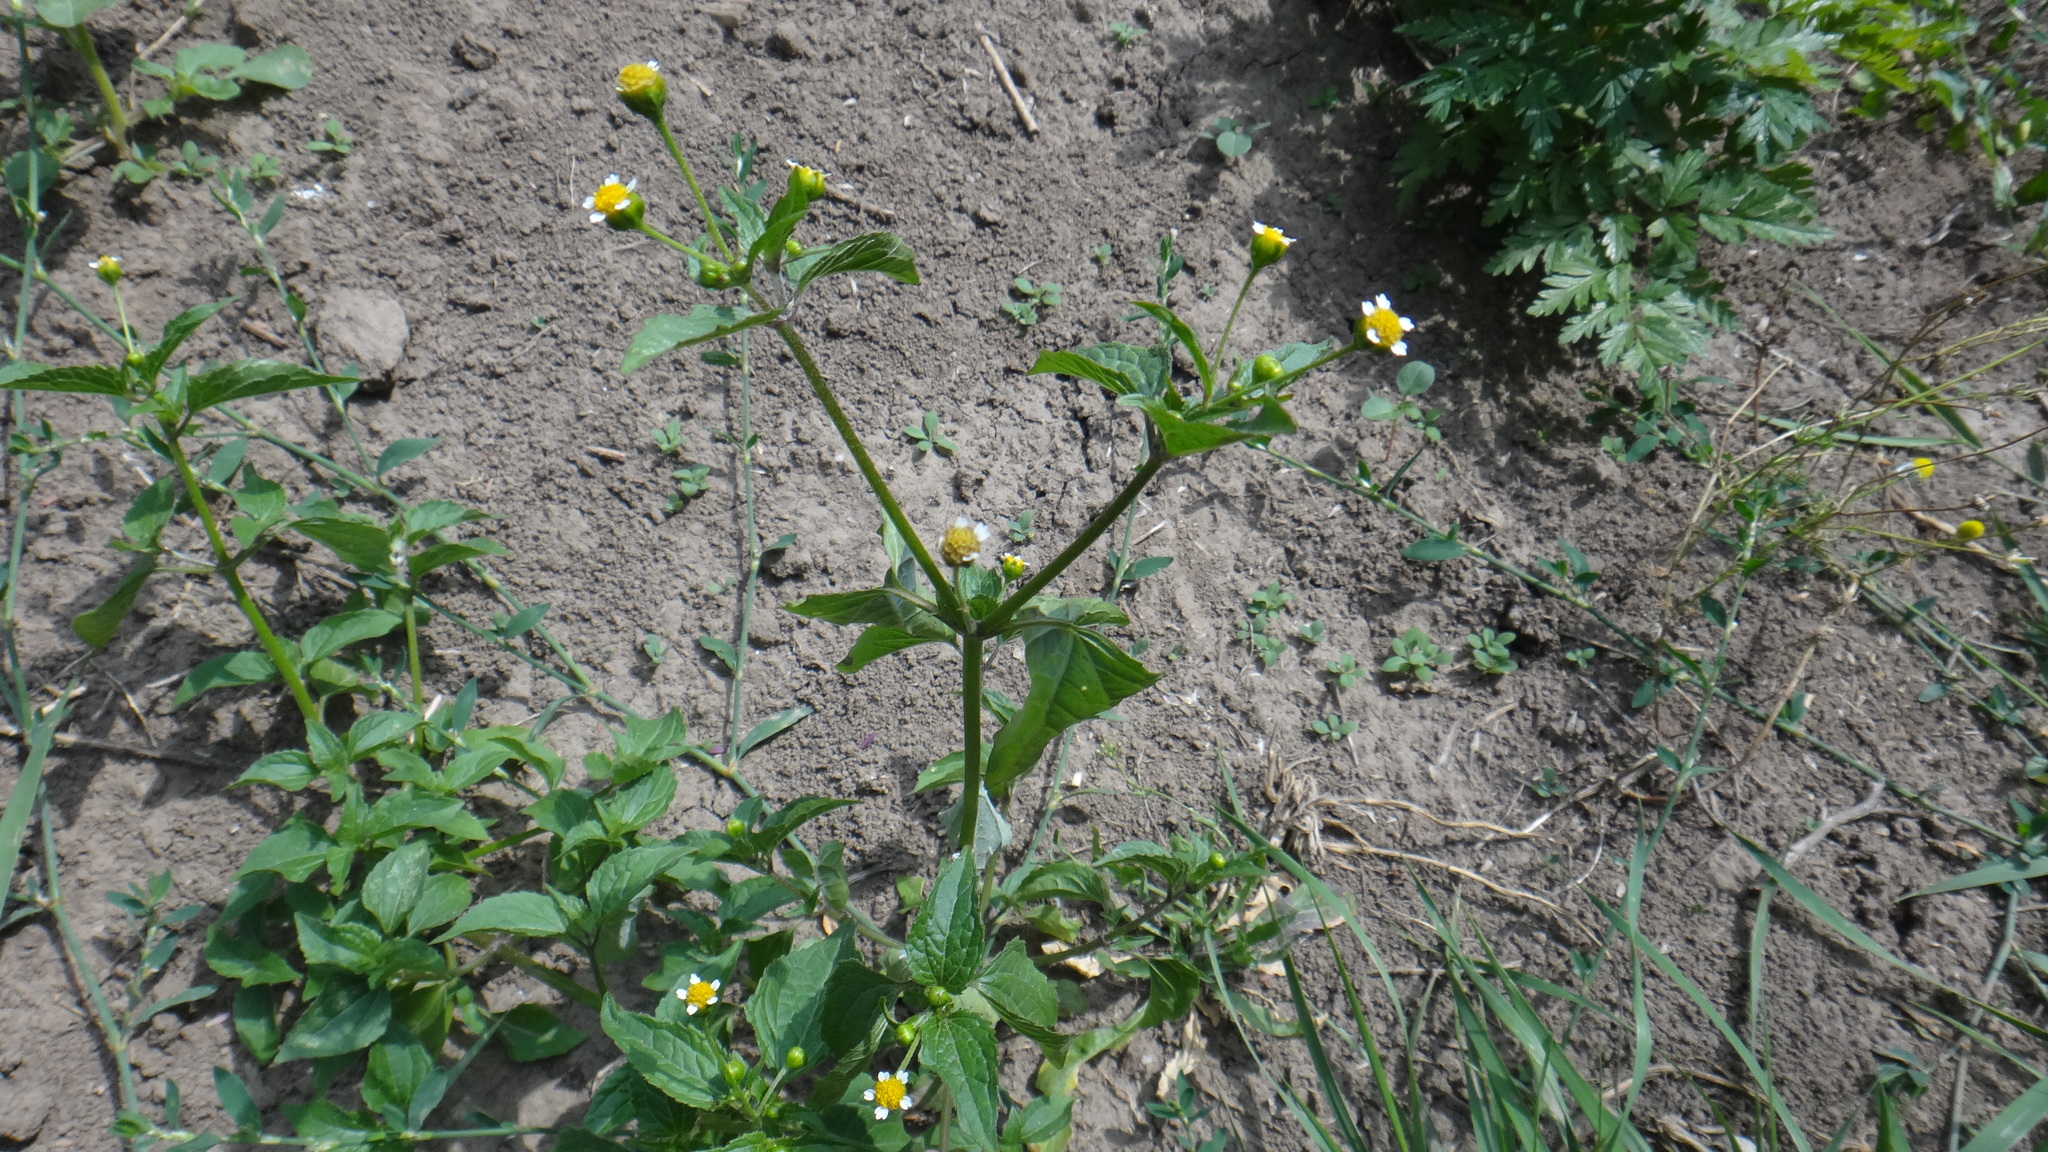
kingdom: Plantae
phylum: Tracheophyta
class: Magnoliopsida
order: Asterales
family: Asteraceae
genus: Galinsoga
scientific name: Galinsoga parviflora
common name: Gallant soldier
